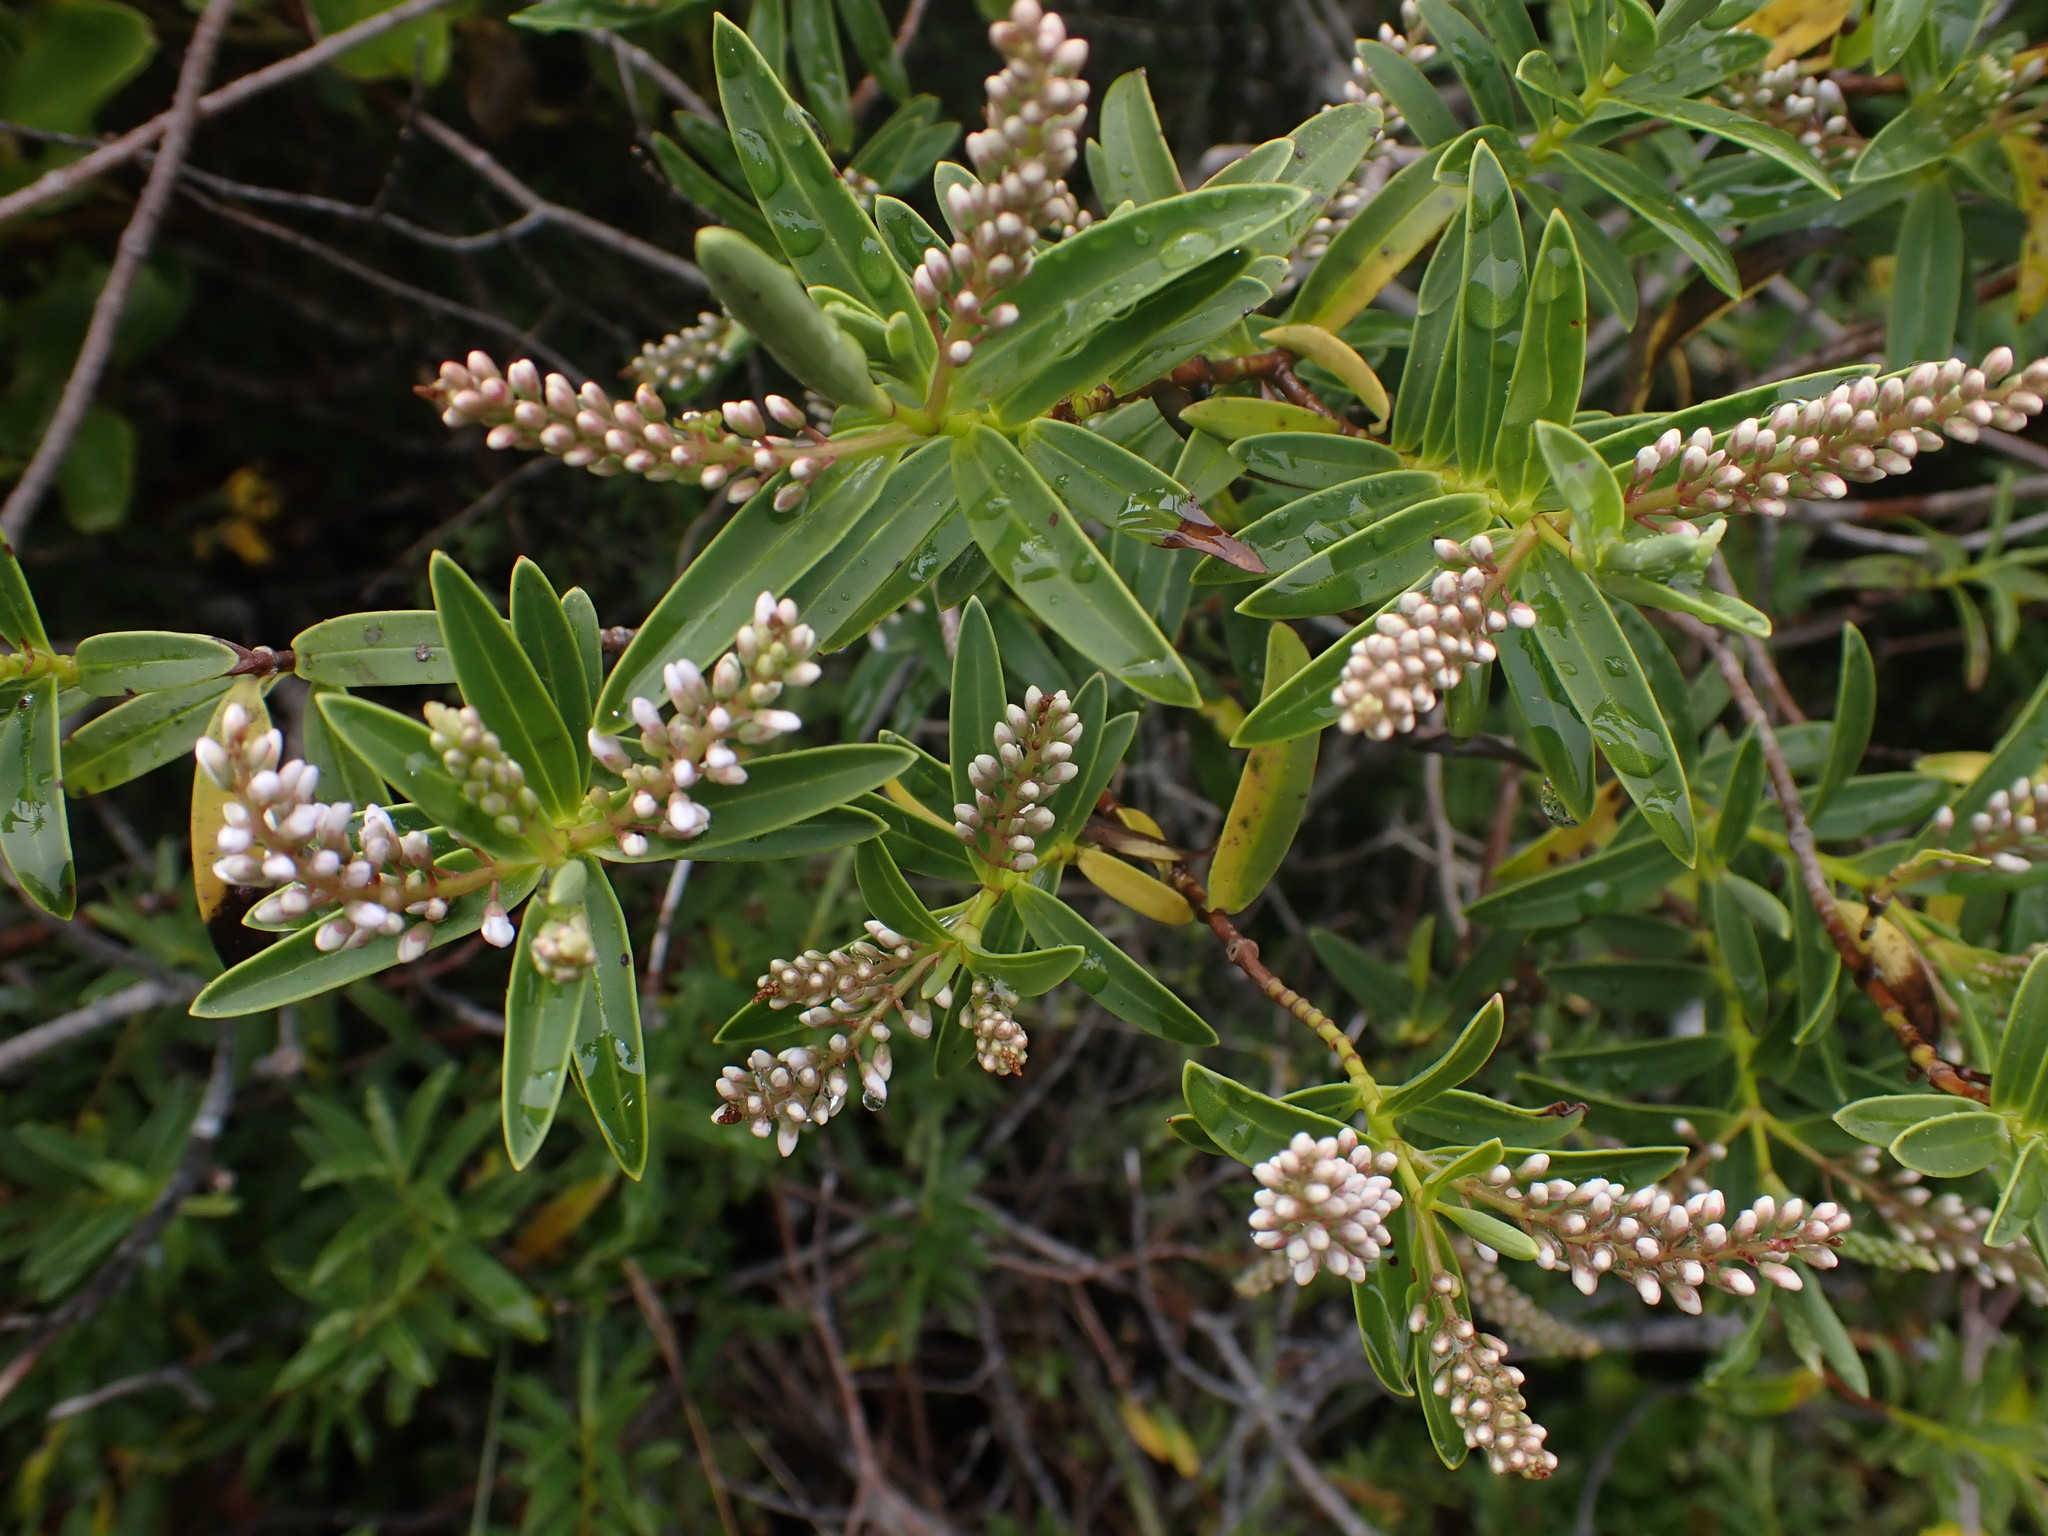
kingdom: Plantae
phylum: Tracheophyta
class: Magnoliopsida
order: Lamiales
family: Plantaginaceae
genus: Veronica
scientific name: Veronica strictissima
